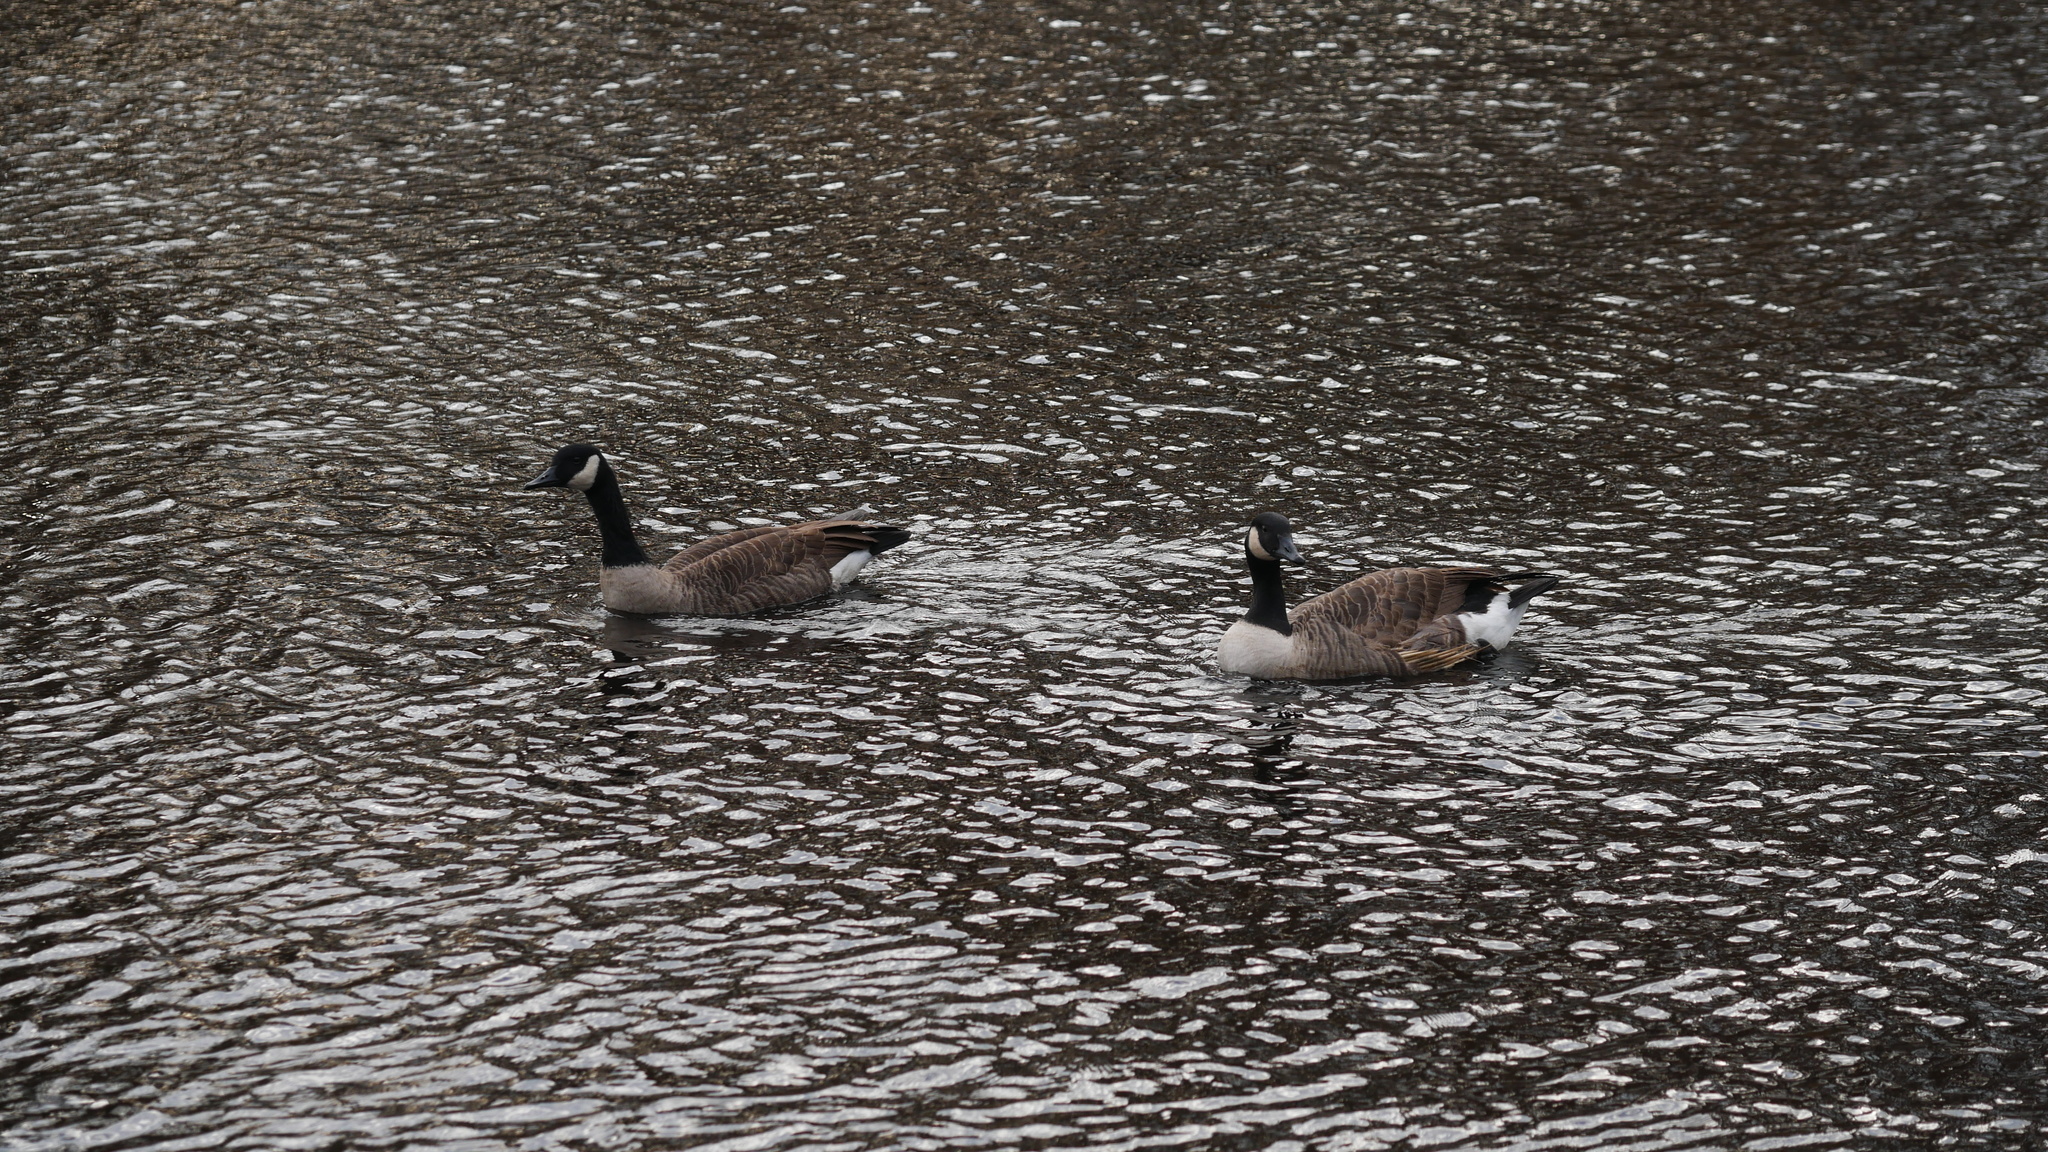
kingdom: Animalia
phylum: Chordata
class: Aves
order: Anseriformes
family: Anatidae
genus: Branta
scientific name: Branta canadensis
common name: Canada goose
